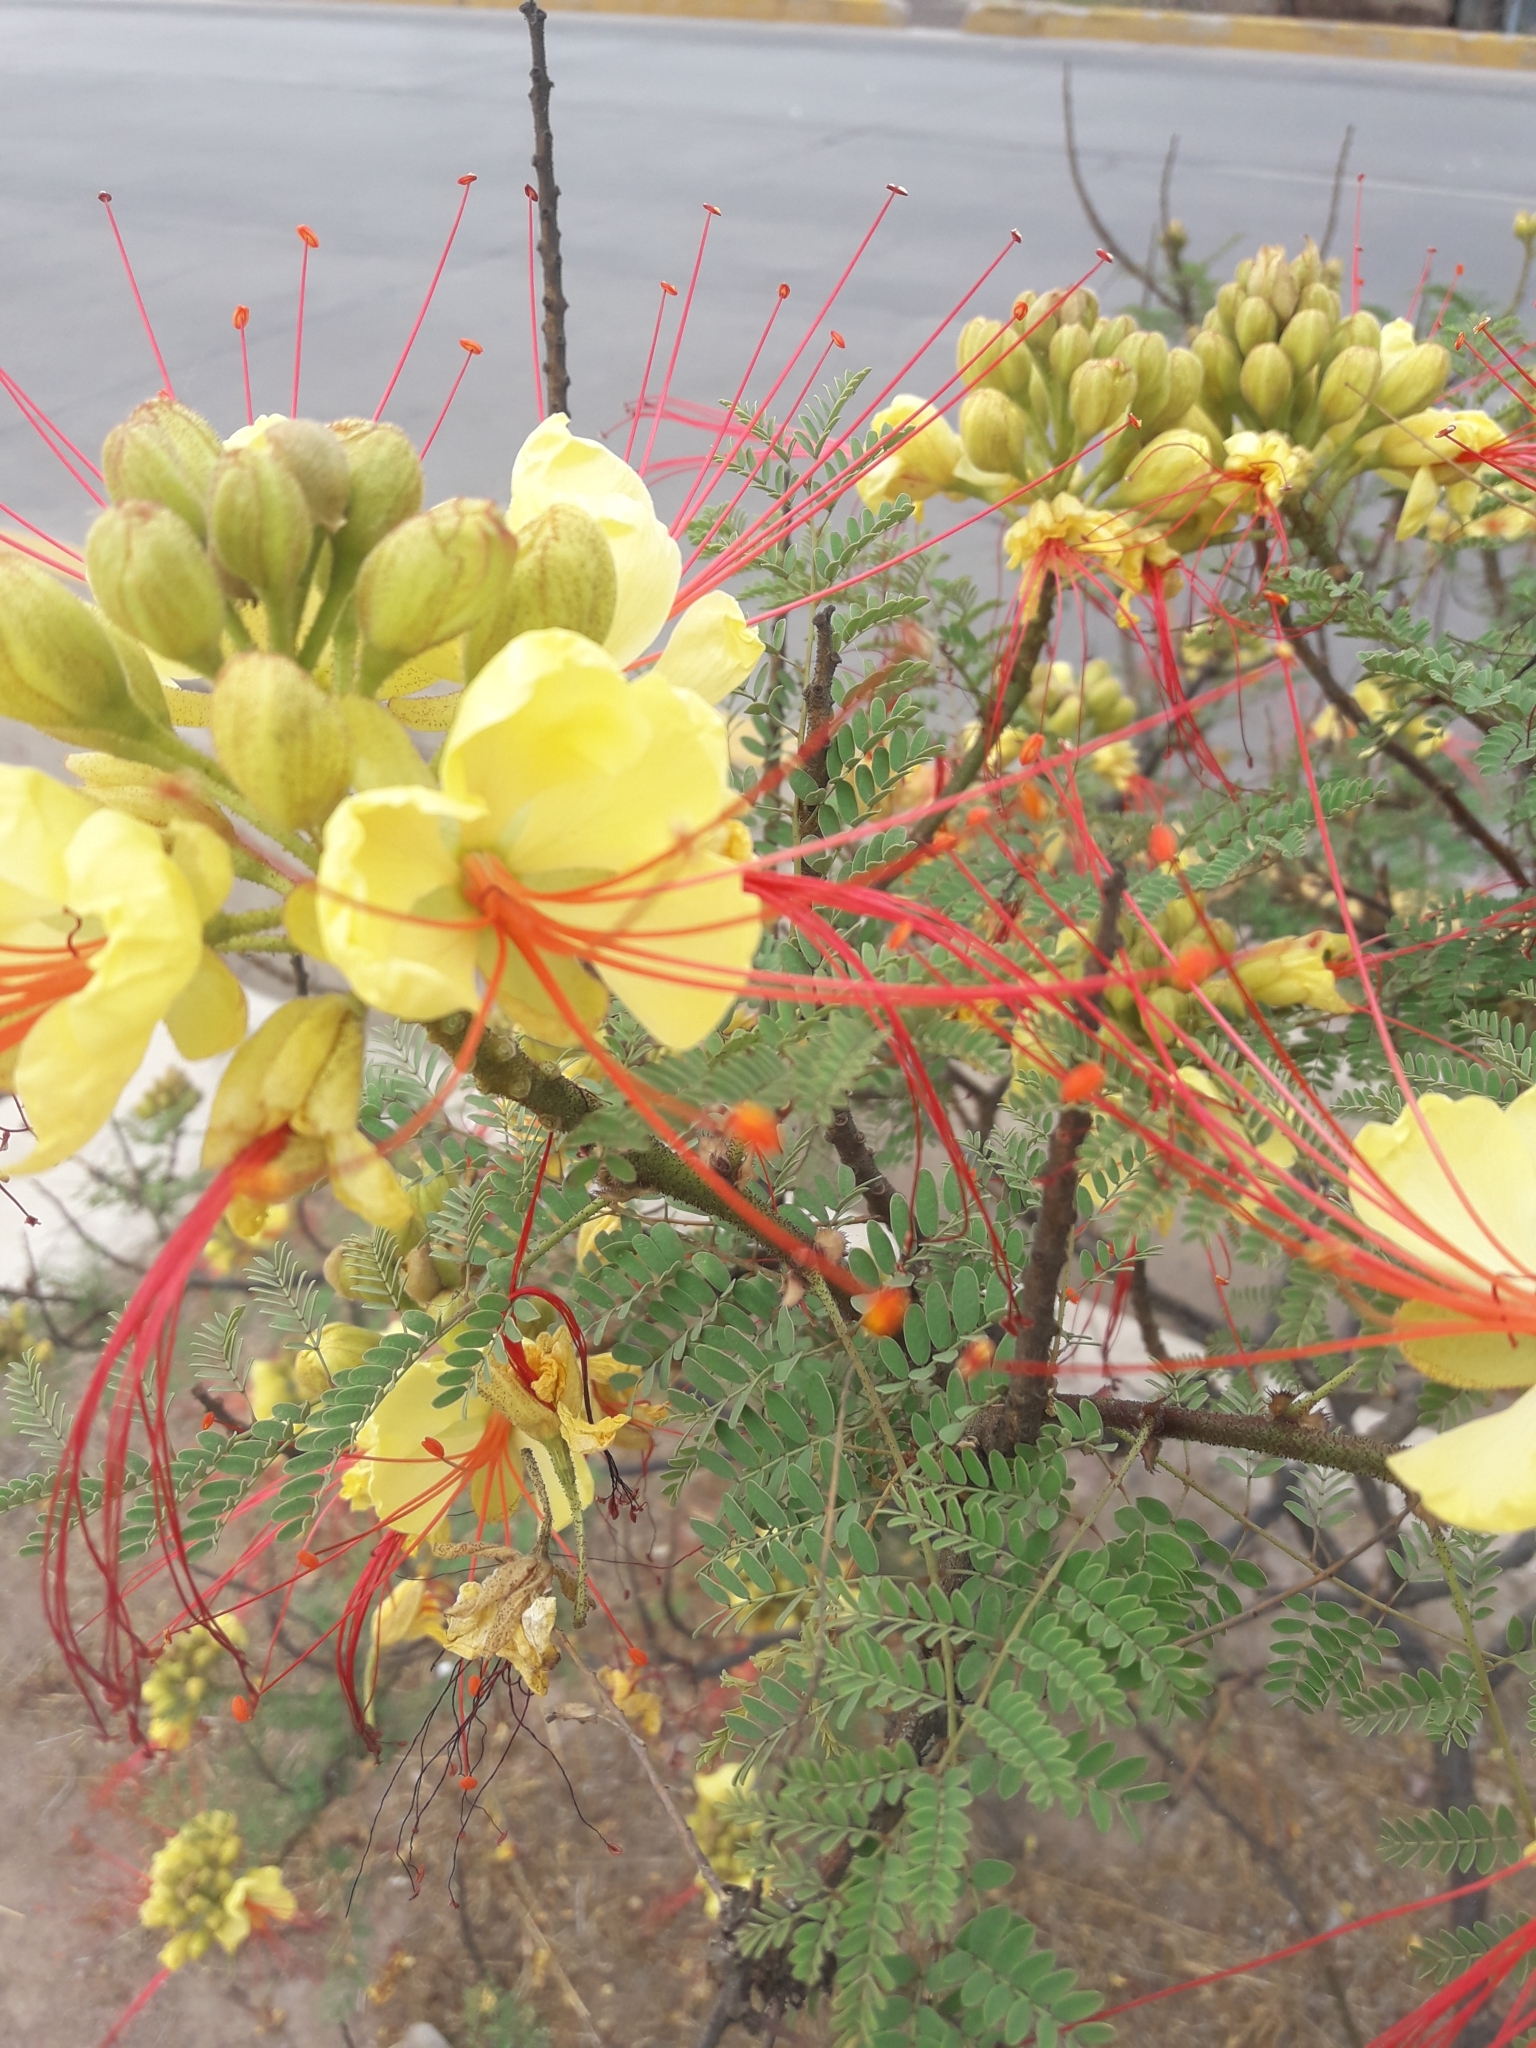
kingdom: Plantae
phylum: Tracheophyta
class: Magnoliopsida
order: Fabales
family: Fabaceae
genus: Erythrostemon
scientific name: Erythrostemon gilliesii
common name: Bird-of-paradise shrub
